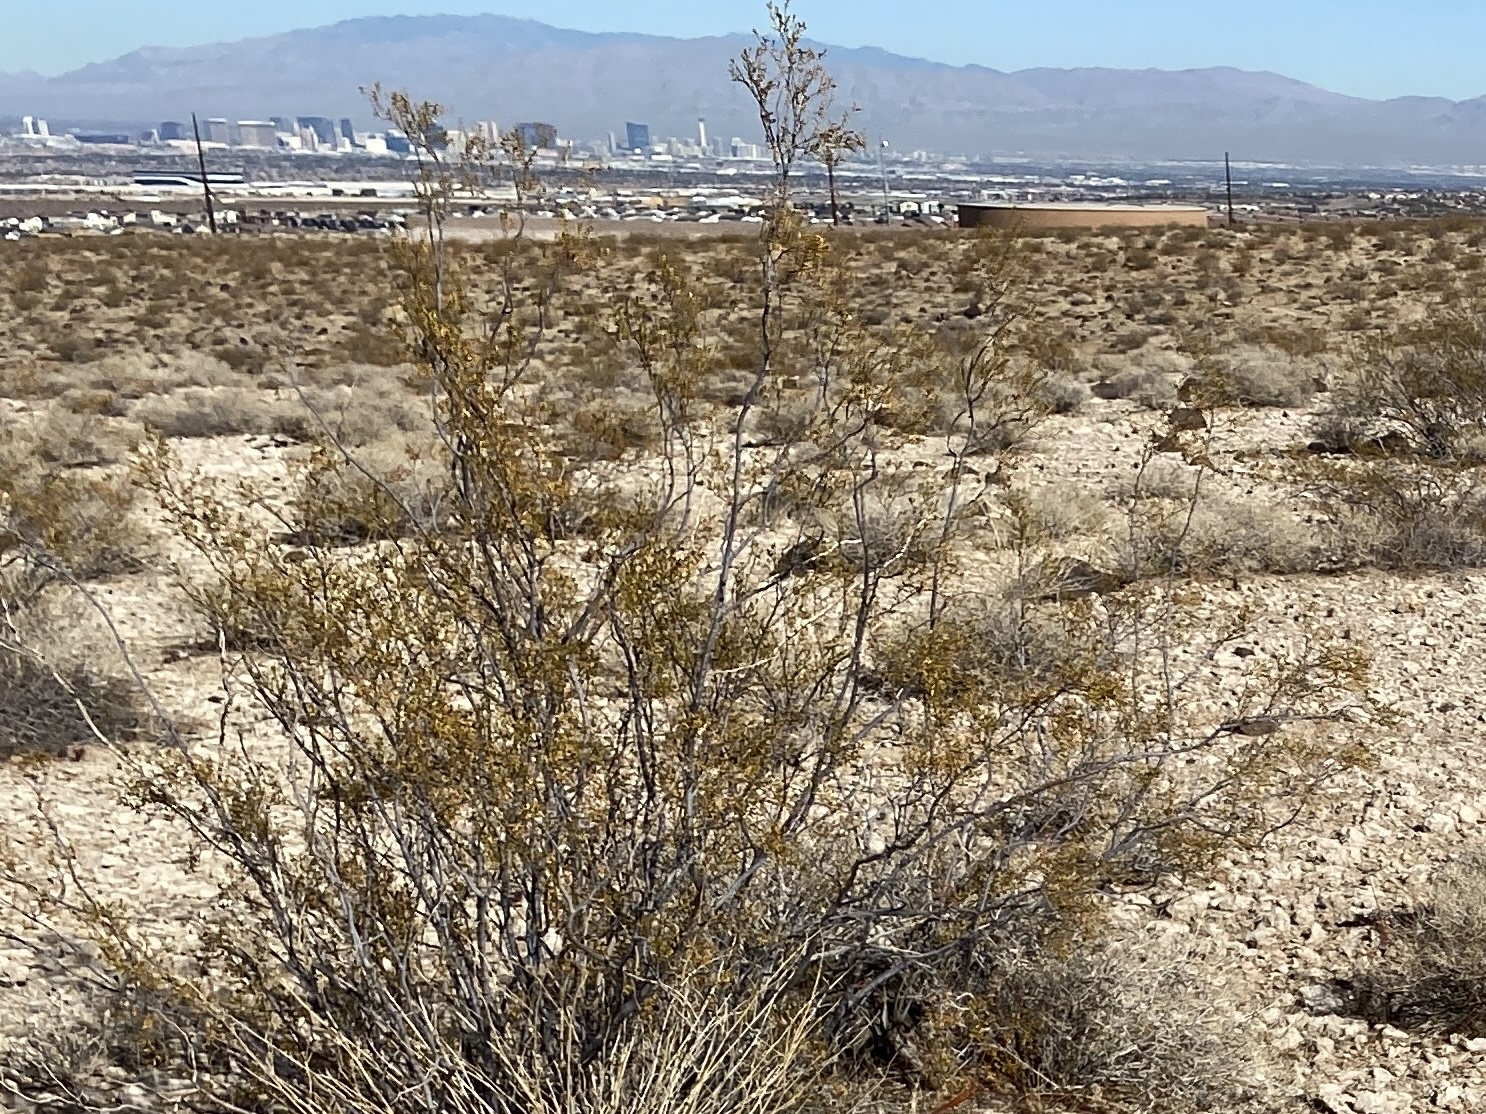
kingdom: Plantae
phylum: Tracheophyta
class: Magnoliopsida
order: Zygophyllales
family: Zygophyllaceae
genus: Larrea
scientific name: Larrea tridentata
